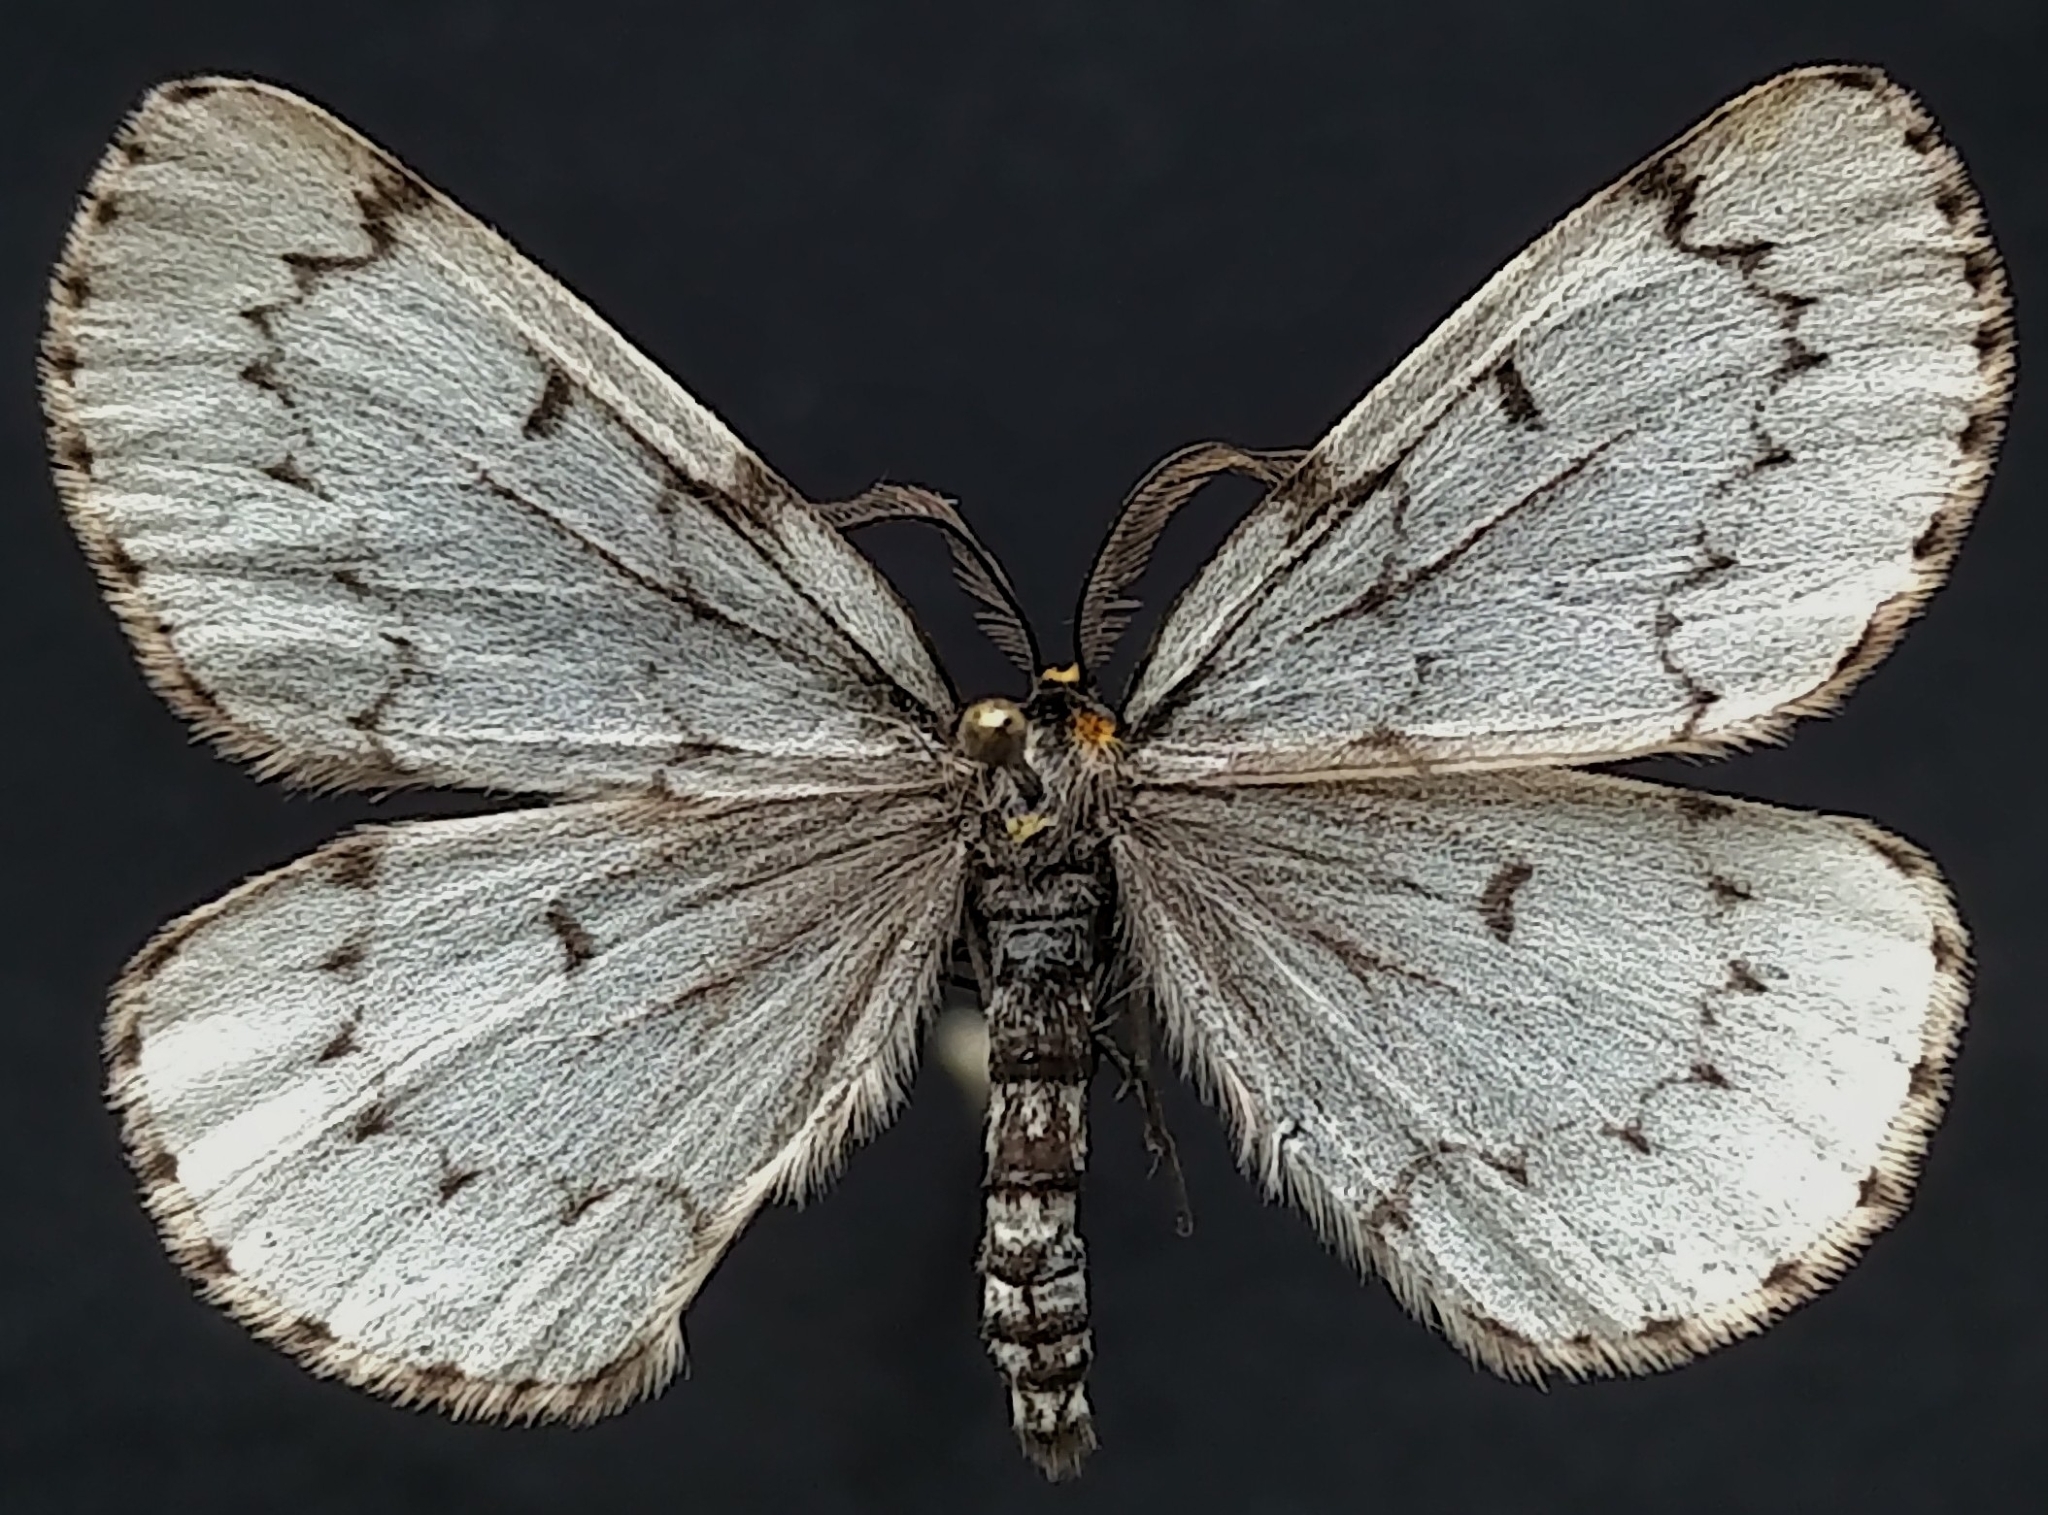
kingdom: Animalia
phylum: Arthropoda
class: Insecta
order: Lepidoptera
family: Geometridae
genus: Cingilia
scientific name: Cingilia catenaria
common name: Chain-dotted geometer
